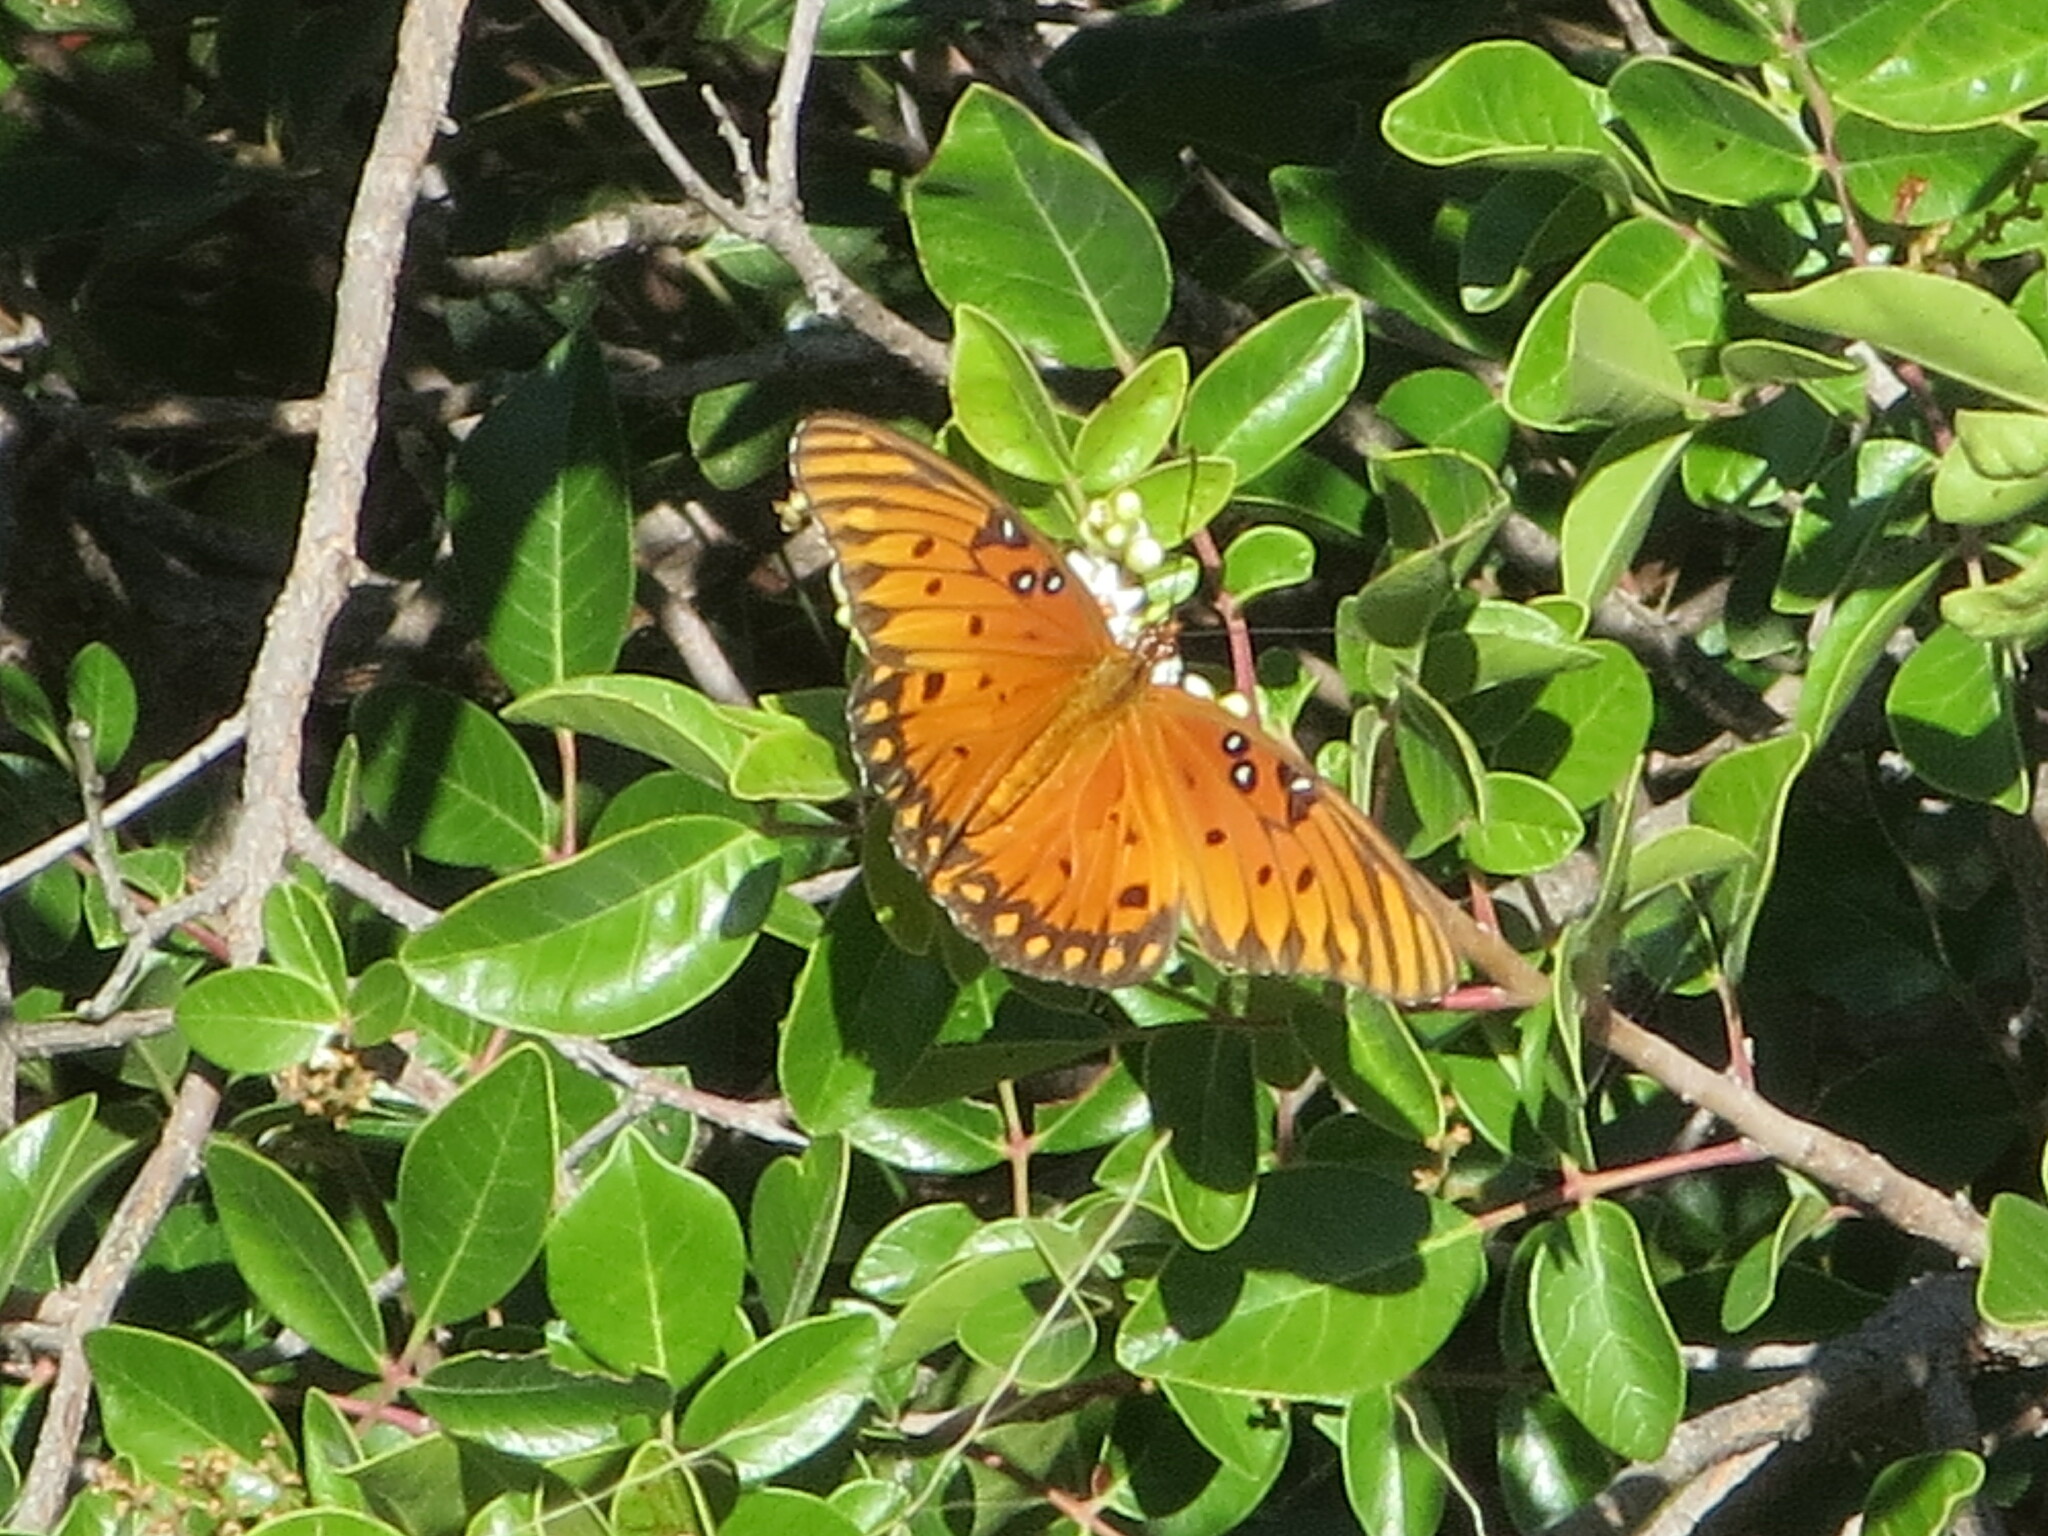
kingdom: Animalia
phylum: Arthropoda
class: Insecta
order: Lepidoptera
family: Nymphalidae
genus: Dione
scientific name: Dione vanillae
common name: Gulf fritillary
